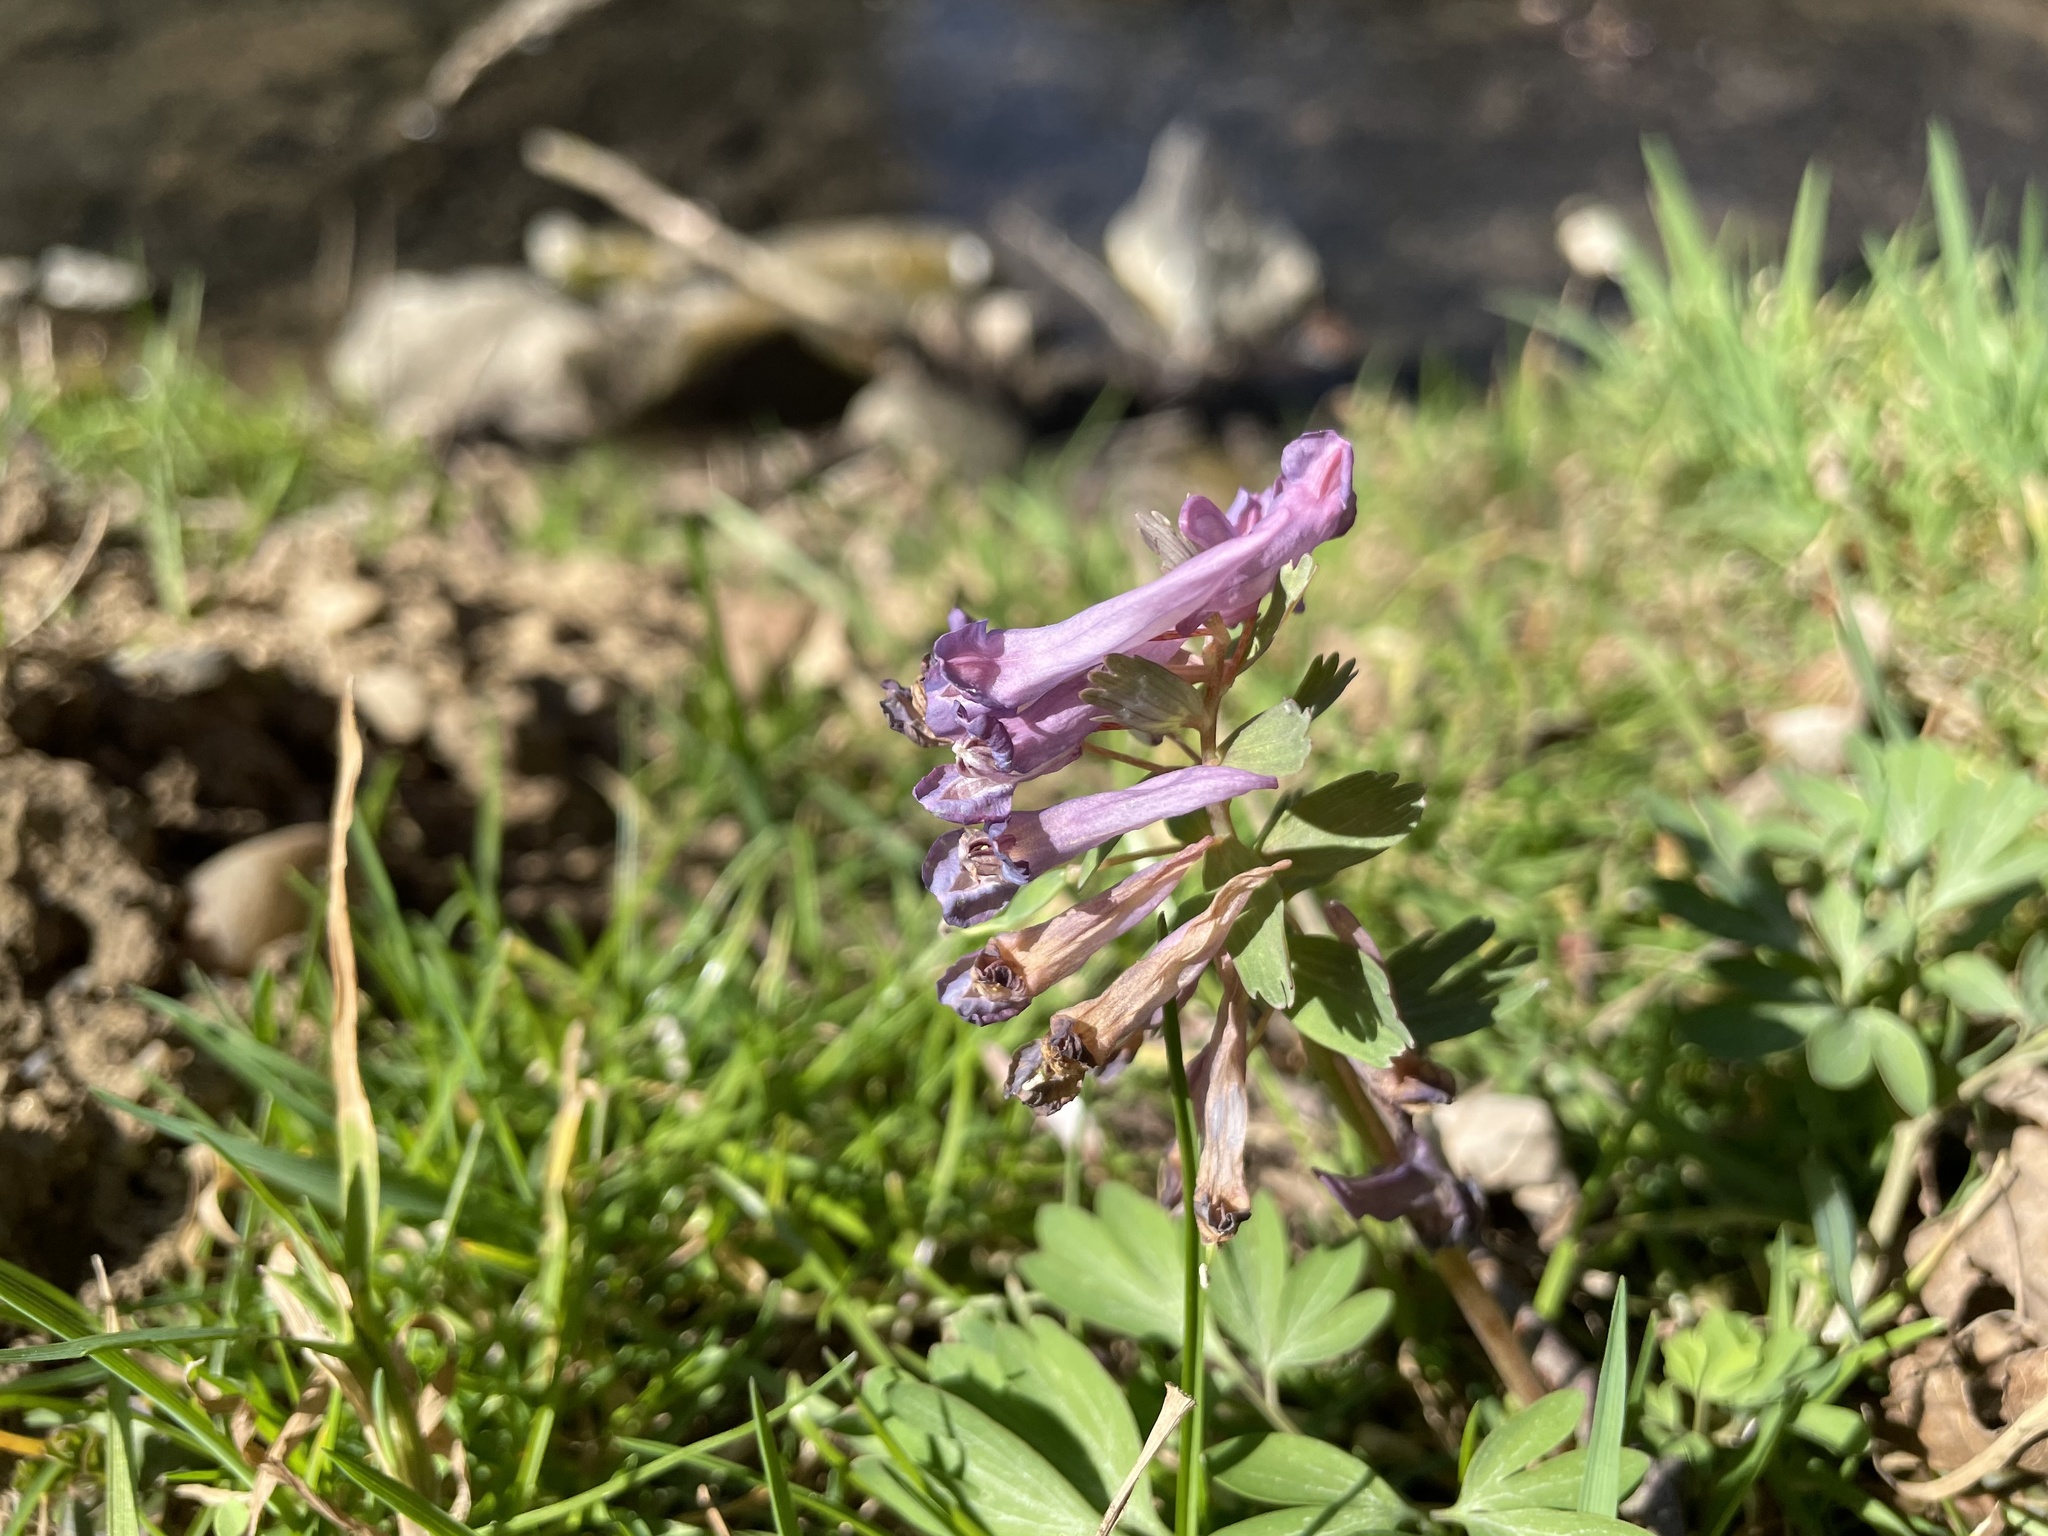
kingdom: Plantae
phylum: Tracheophyta
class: Magnoliopsida
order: Ranunculales
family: Papaveraceae
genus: Corydalis
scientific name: Corydalis solida
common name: Bird-in-a-bush
